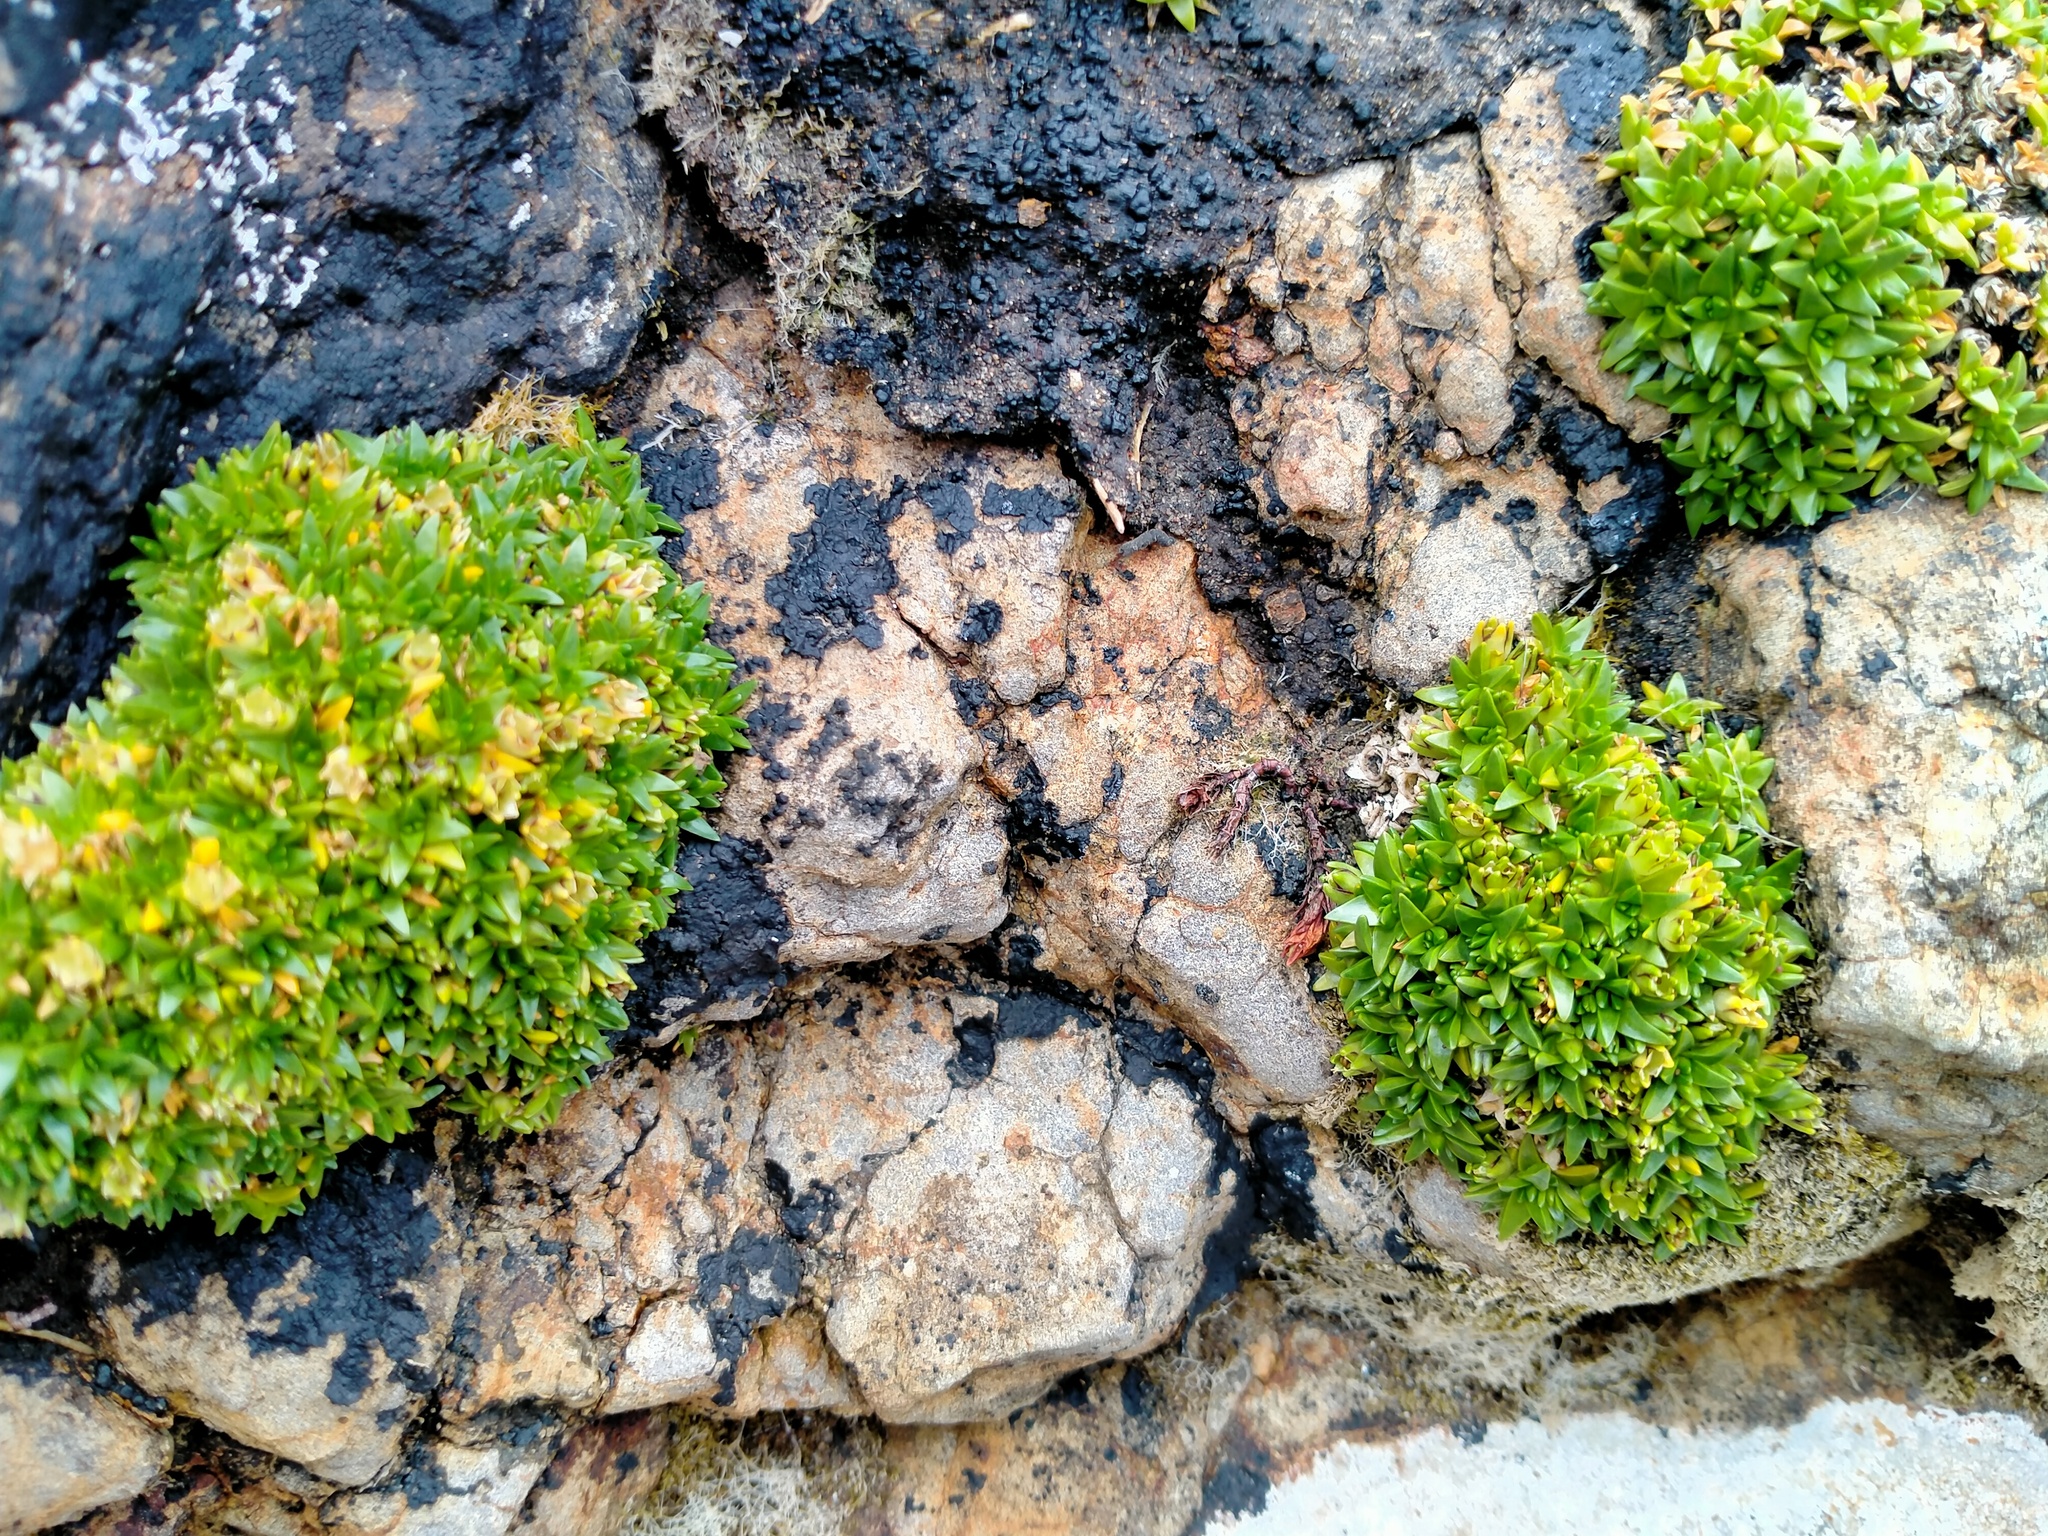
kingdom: Plantae
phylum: Tracheophyta
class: Magnoliopsida
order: Caryophyllales
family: Caryophyllaceae
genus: Colobanthus
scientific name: Colobanthus muscoides
